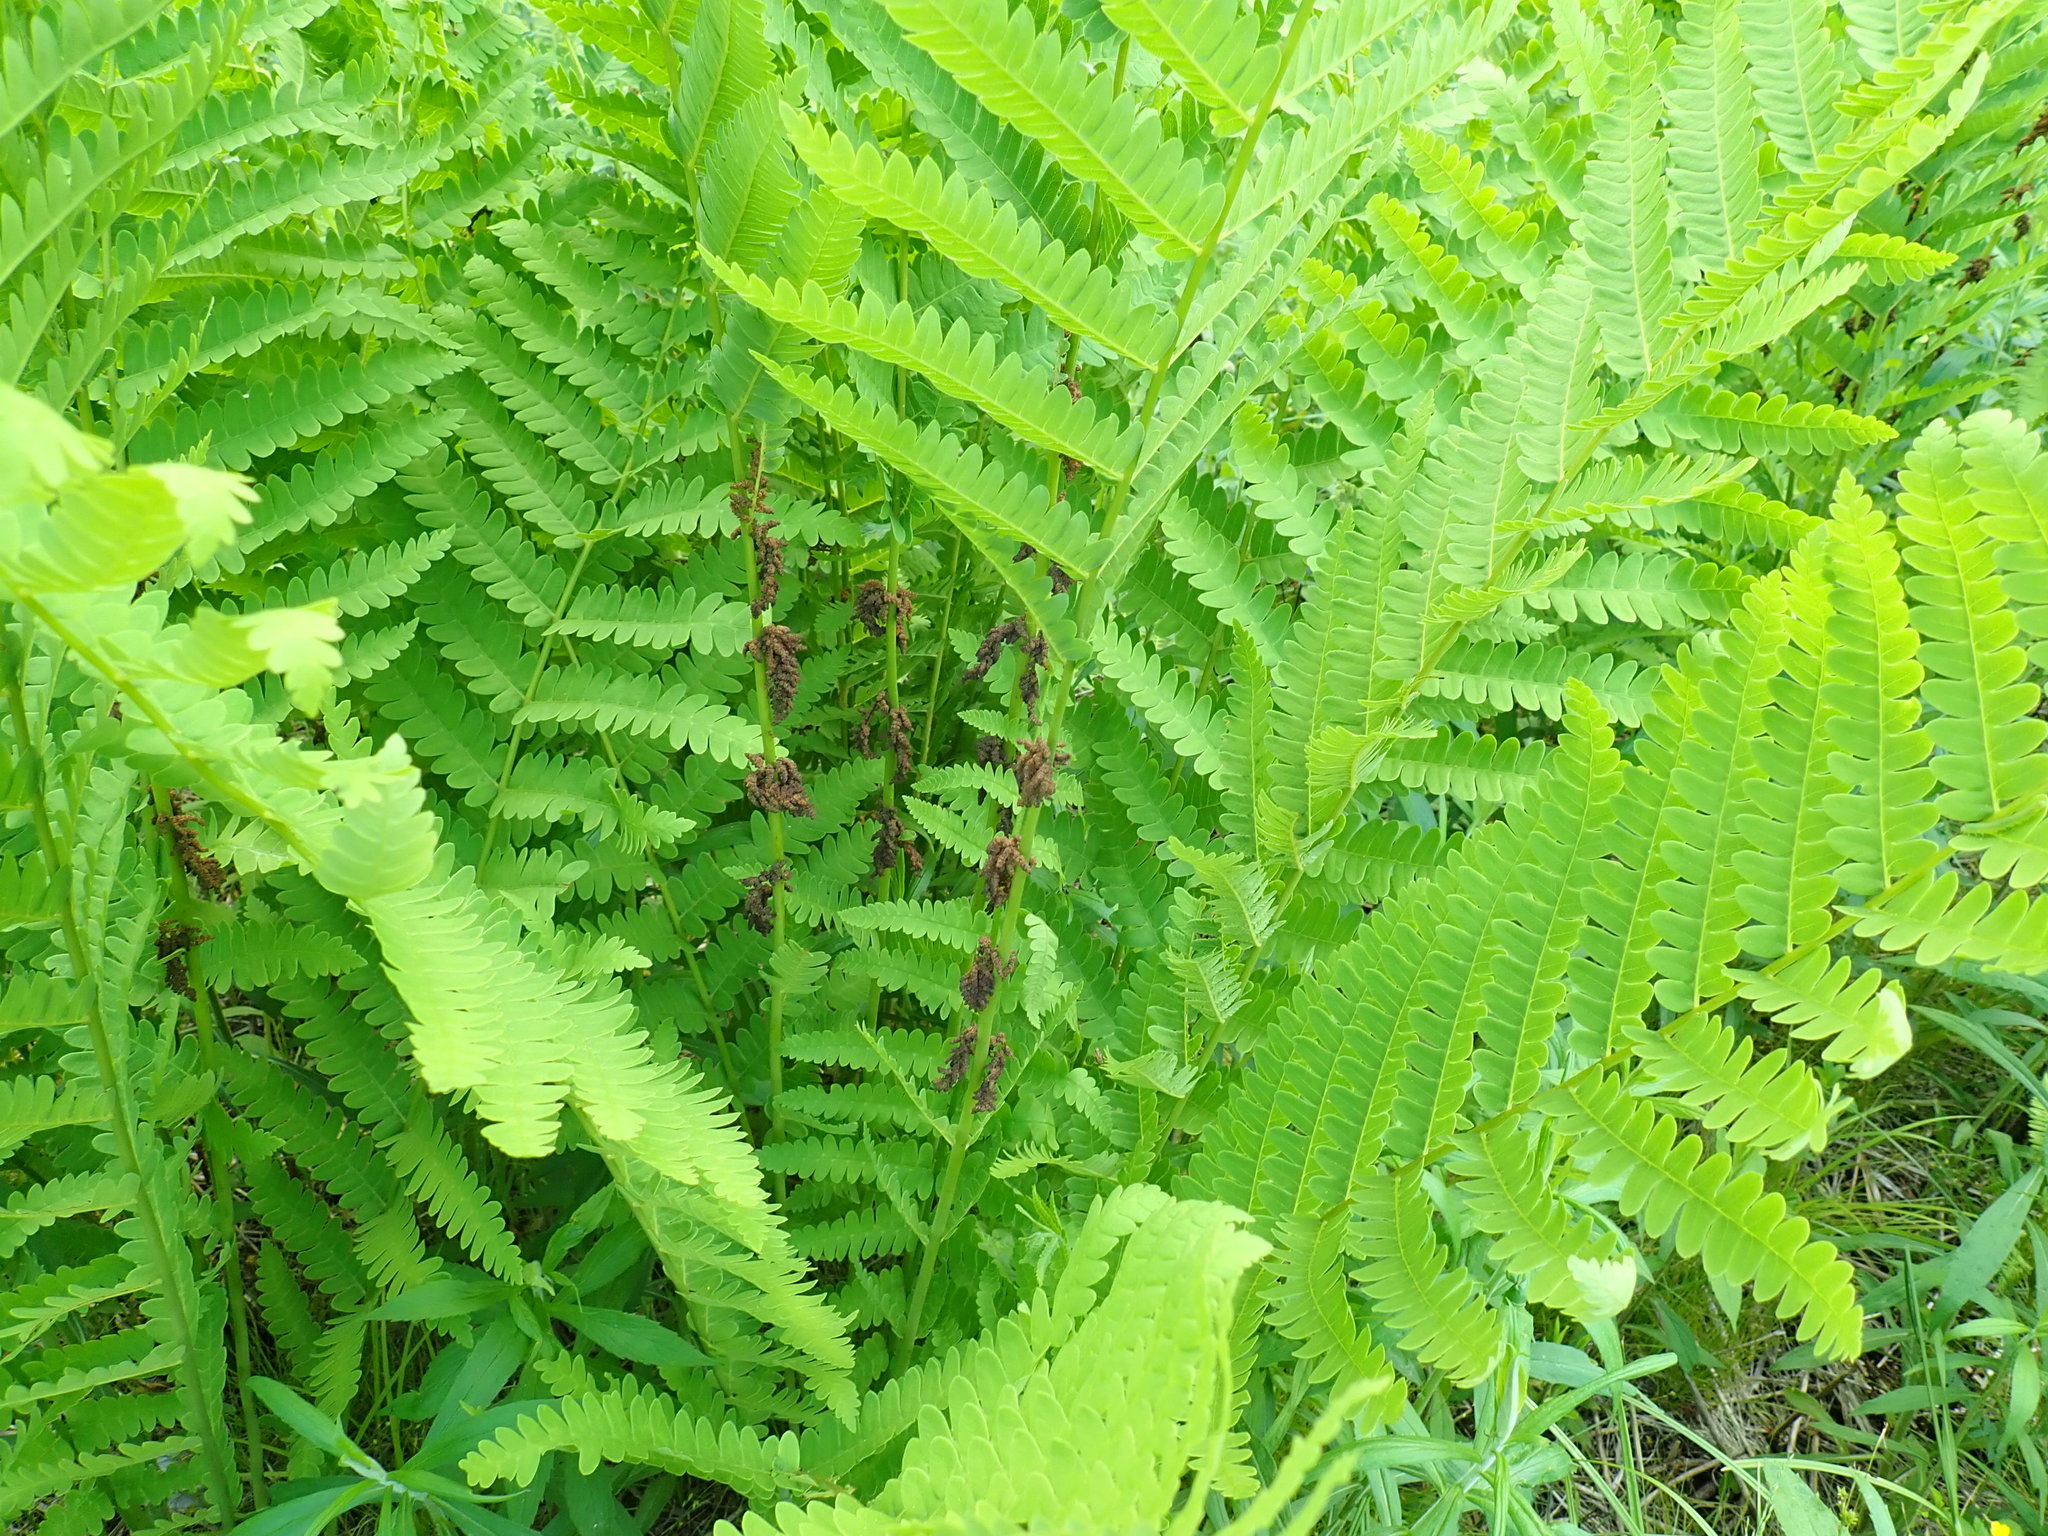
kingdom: Plantae
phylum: Tracheophyta
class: Polypodiopsida
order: Osmundales
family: Osmundaceae
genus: Claytosmunda
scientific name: Claytosmunda claytoniana
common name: Clayton's fern
